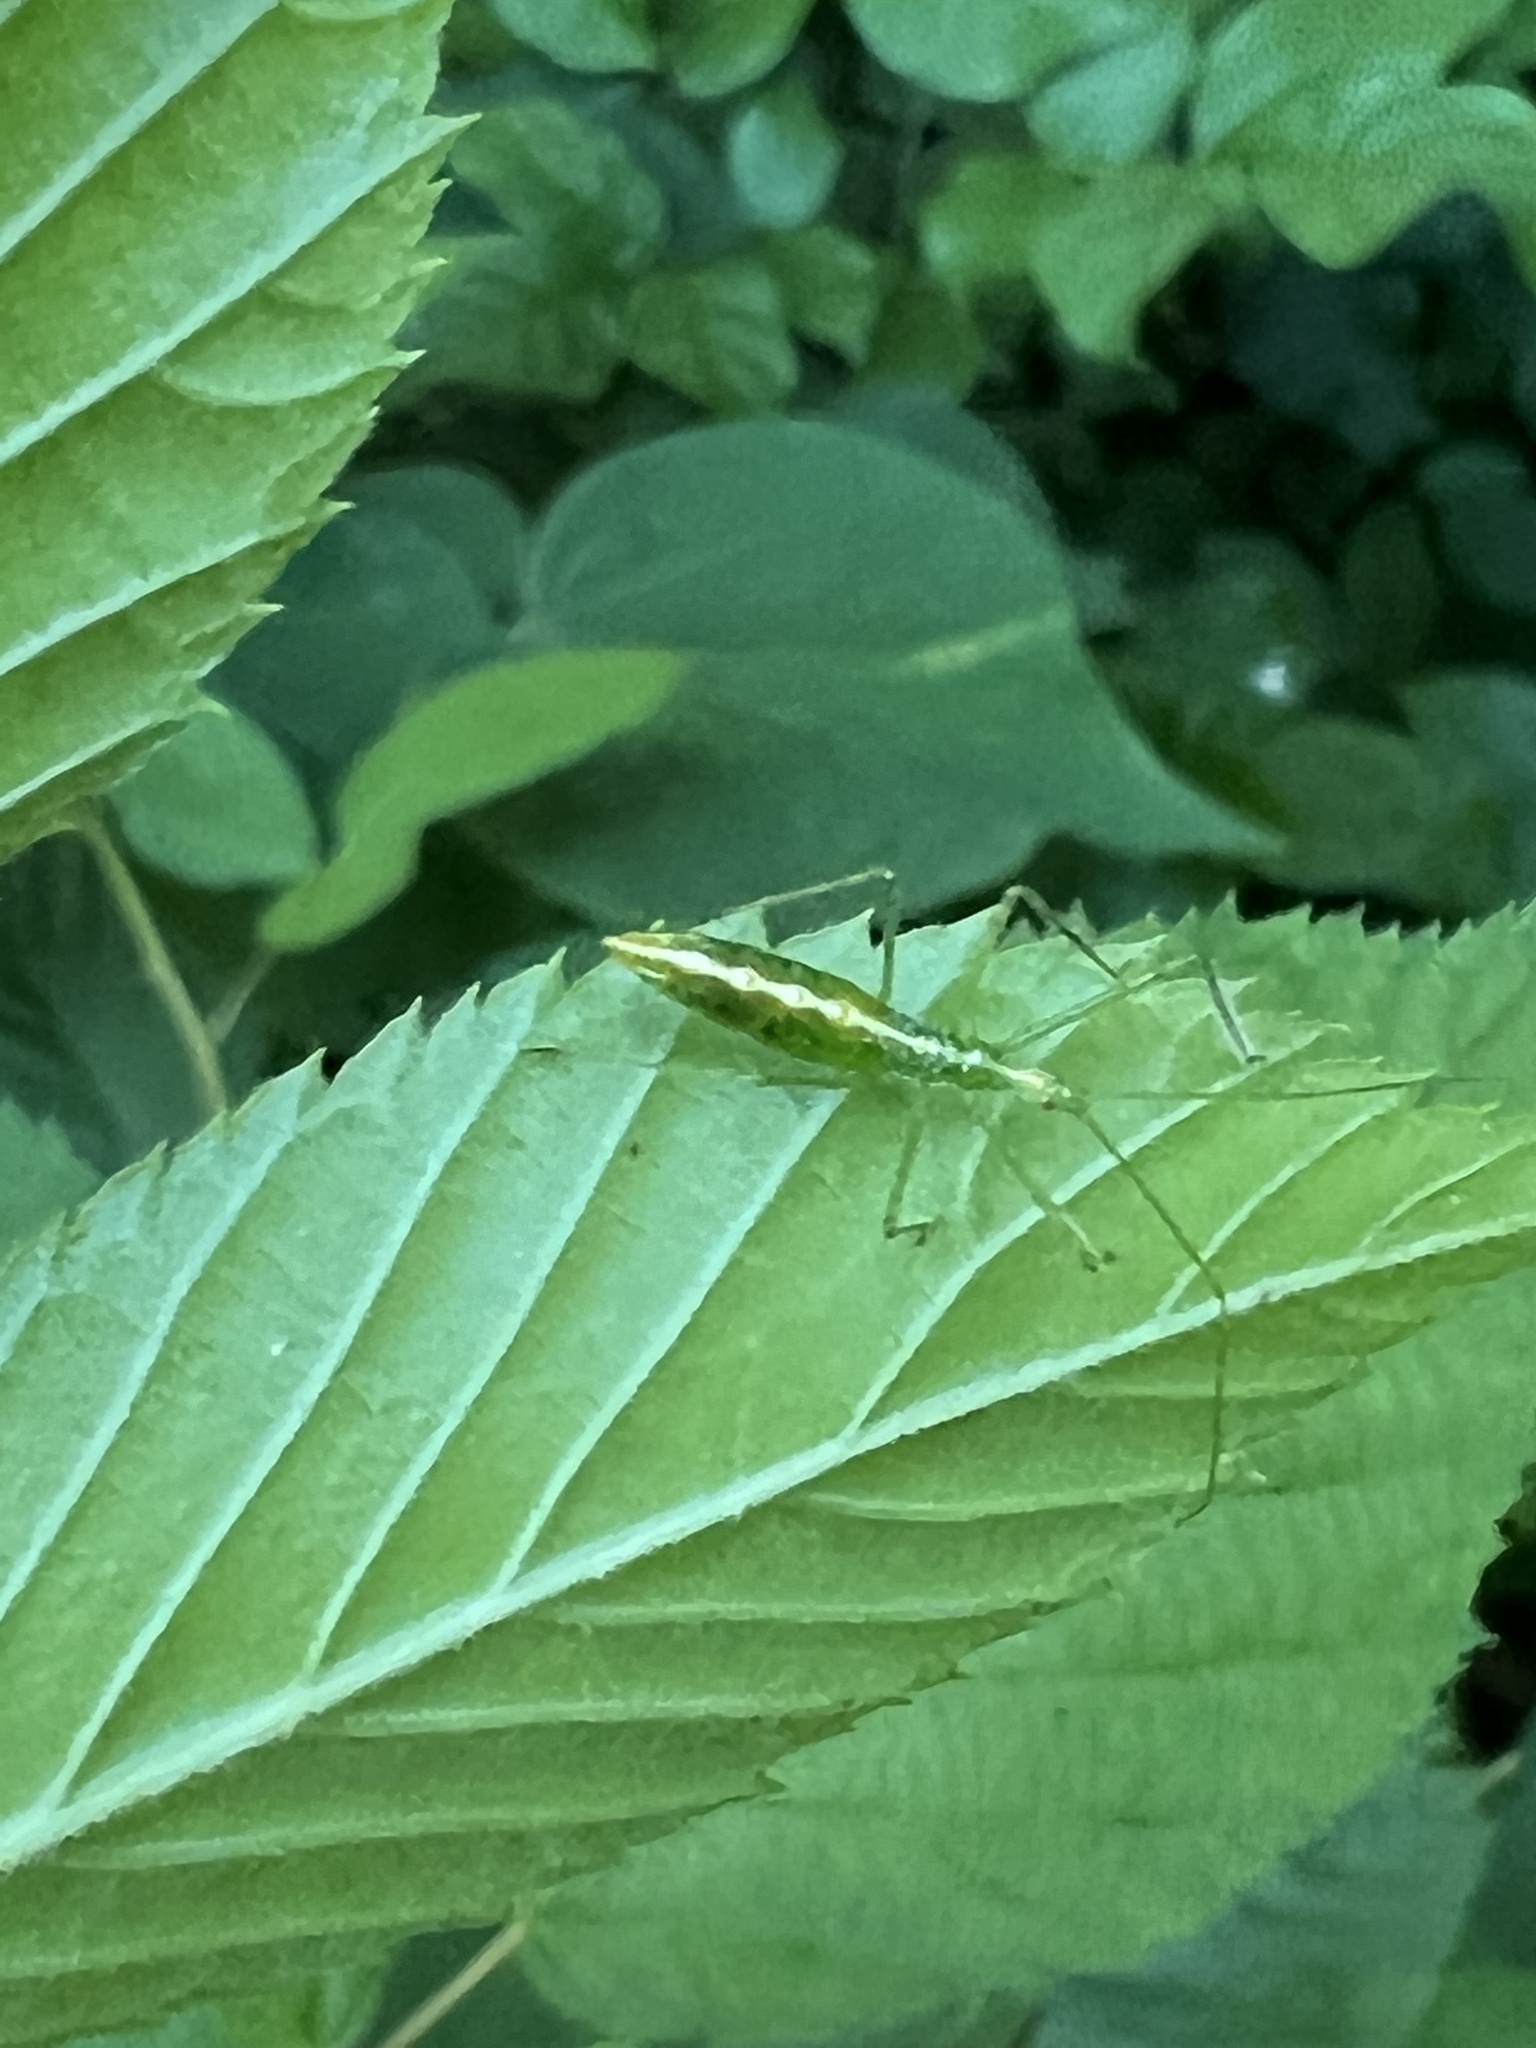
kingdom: Animalia
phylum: Arthropoda
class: Insecta
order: Hemiptera
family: Reduviidae
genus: Zelus
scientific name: Zelus luridus
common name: Pale green assassin bug
